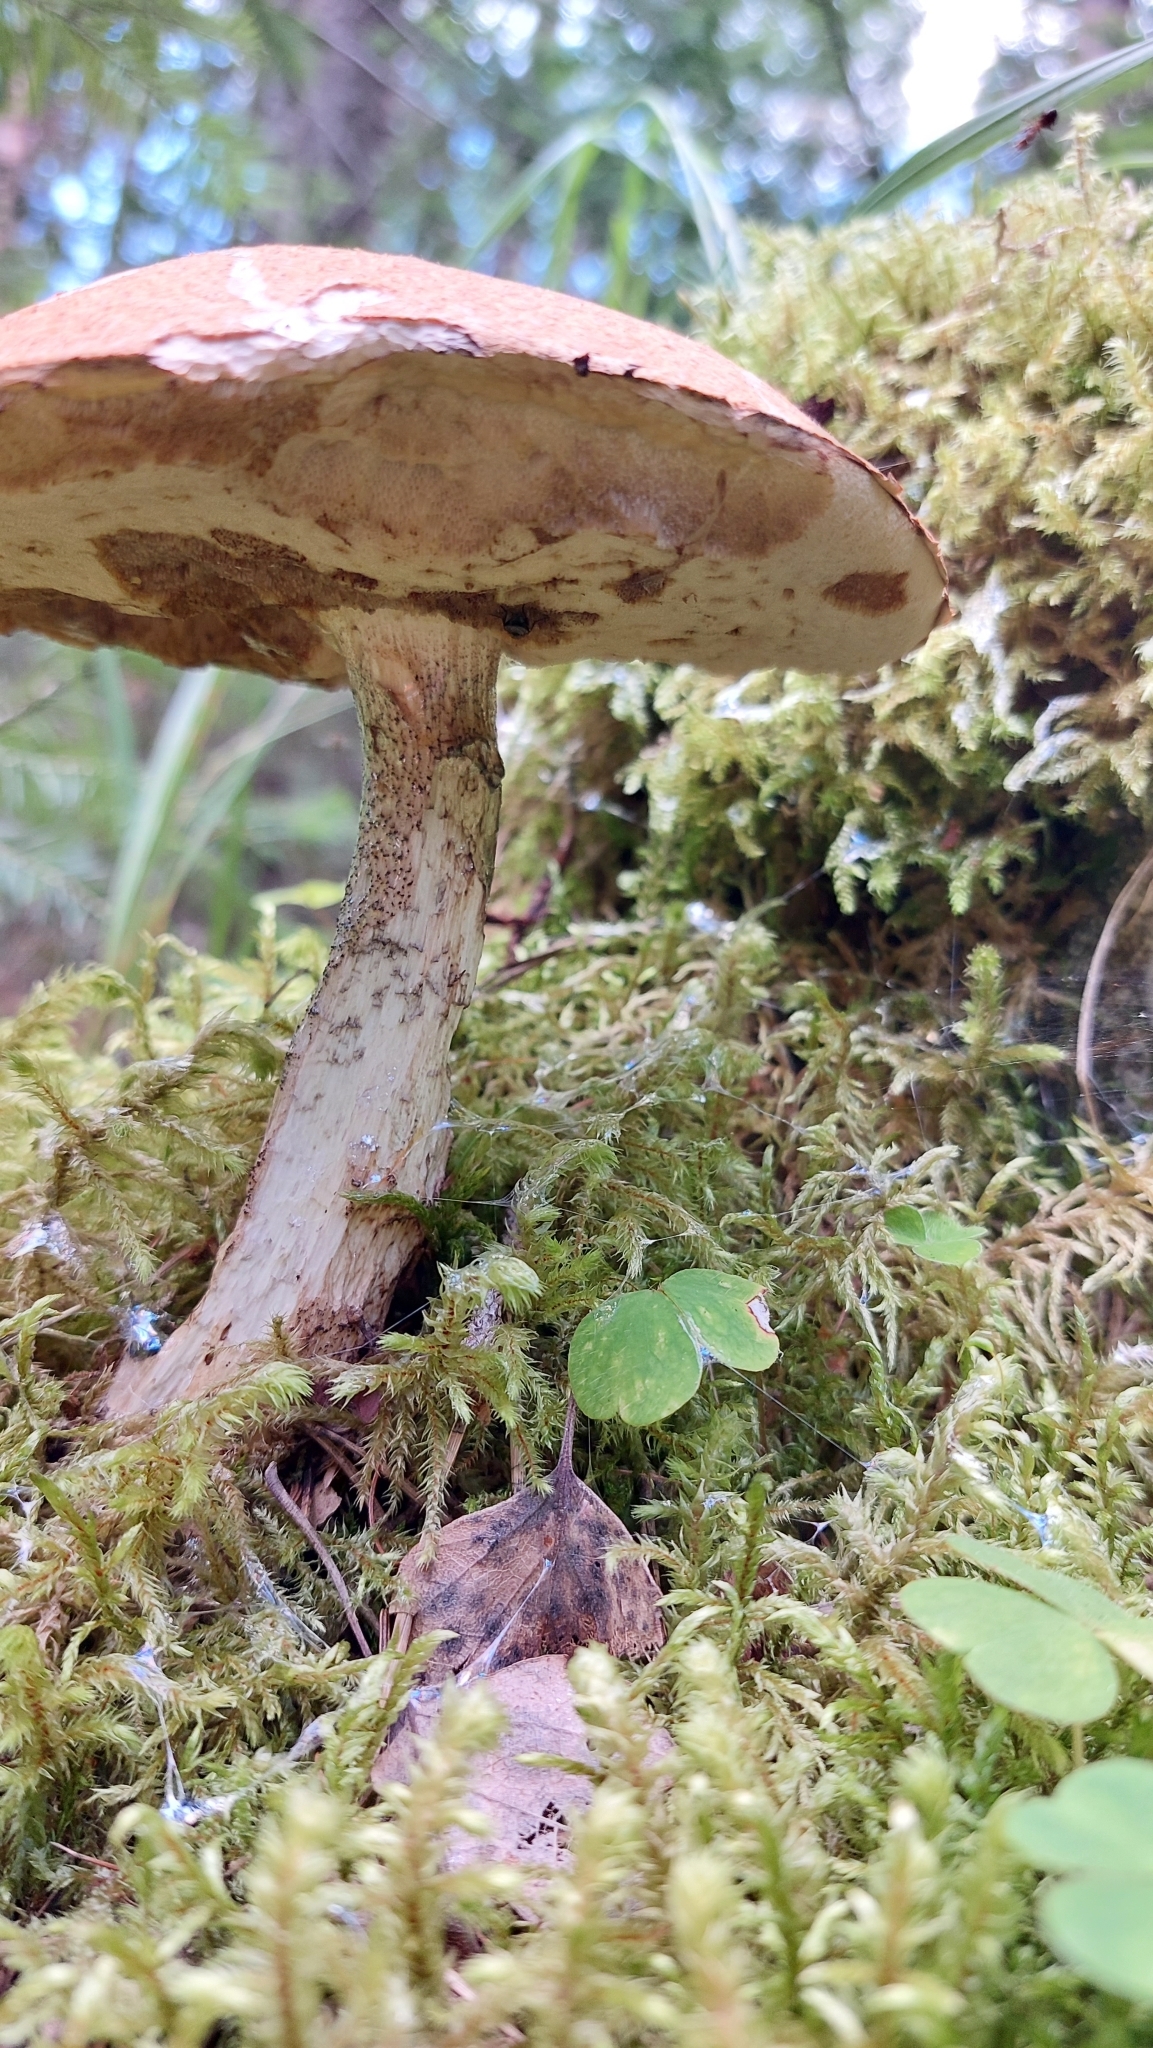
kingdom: Fungi
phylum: Basidiomycota
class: Agaricomycetes
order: Boletales
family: Boletaceae
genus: Leccinum
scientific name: Leccinum aurantiacum
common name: Orange bolete
